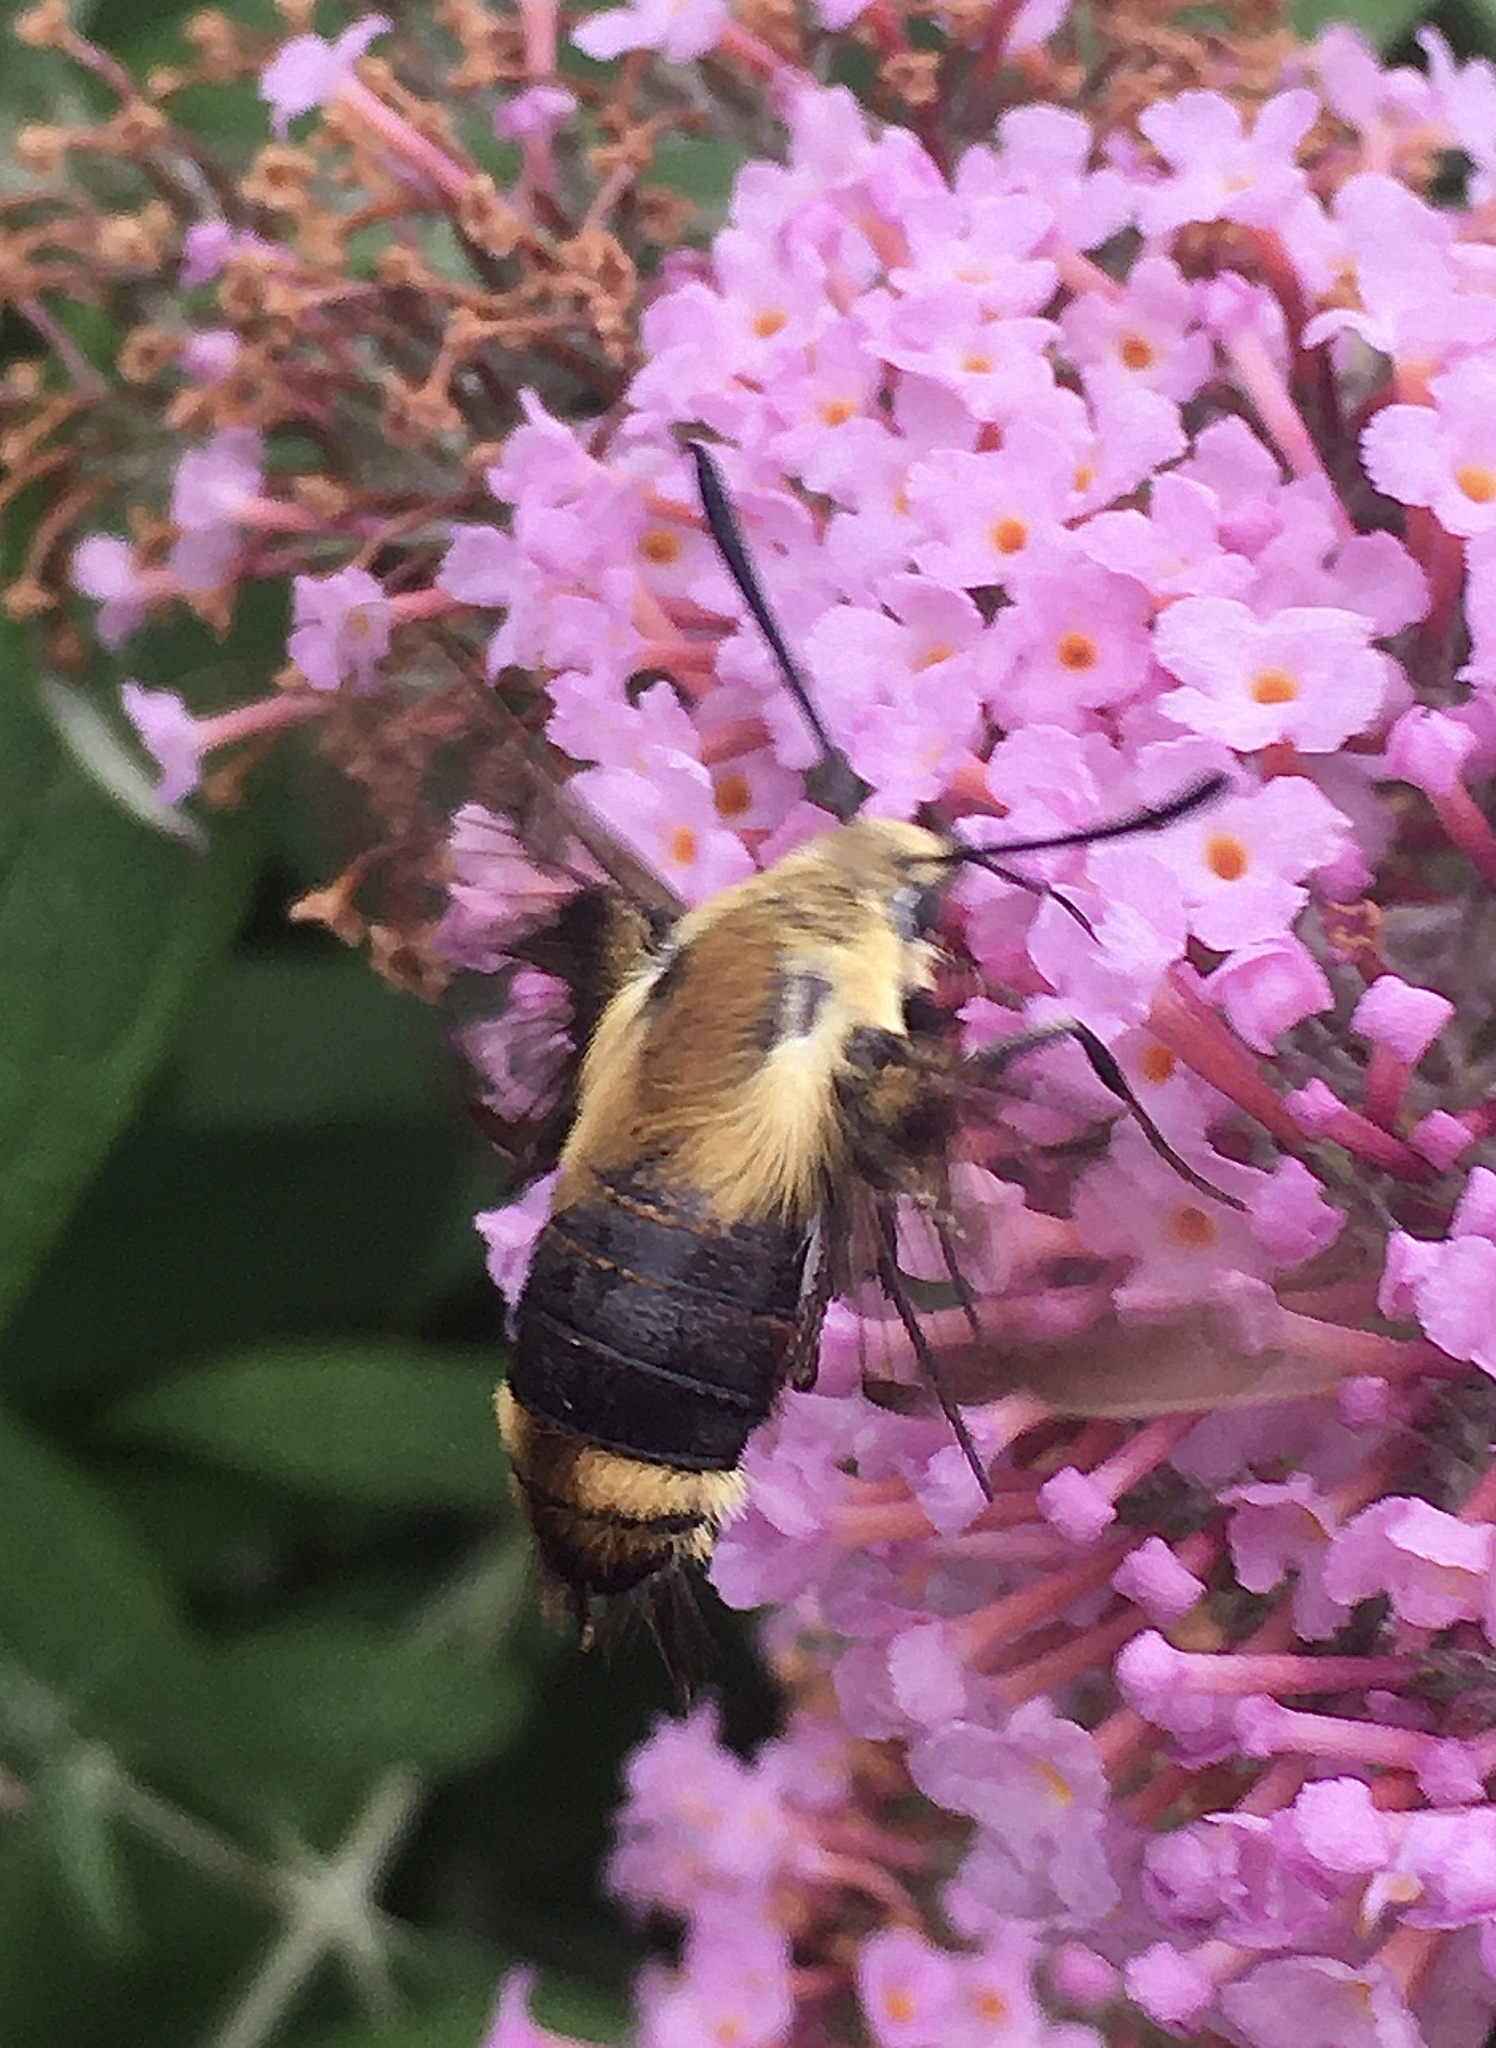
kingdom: Animalia
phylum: Arthropoda
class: Insecta
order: Lepidoptera
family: Sphingidae
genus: Hemaris
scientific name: Hemaris diffinis
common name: Bumblebee moth
